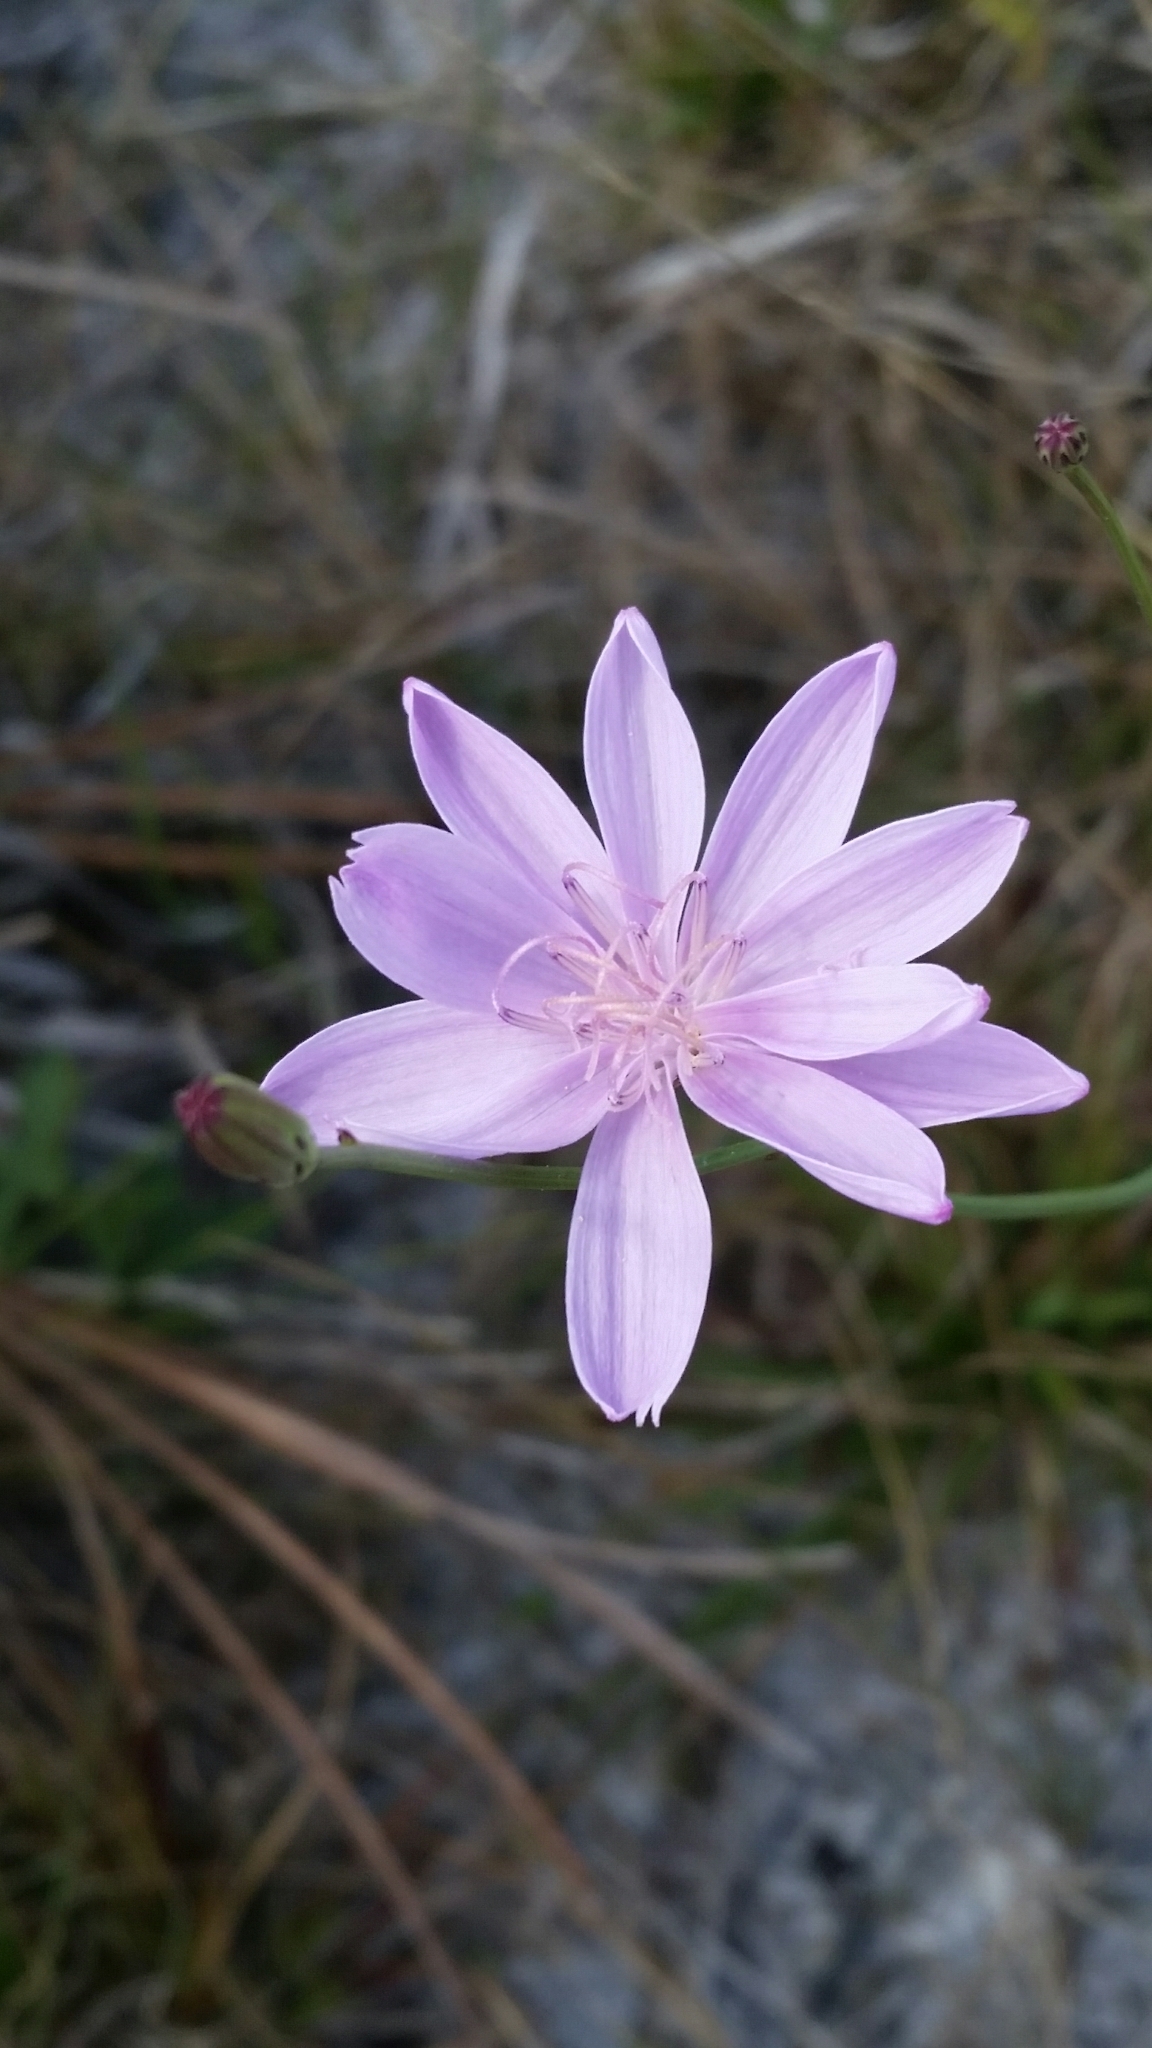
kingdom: Plantae
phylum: Tracheophyta
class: Magnoliopsida
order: Asterales
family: Asteraceae
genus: Lygodesmia
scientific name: Lygodesmia aphylla
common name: Rose-rush
